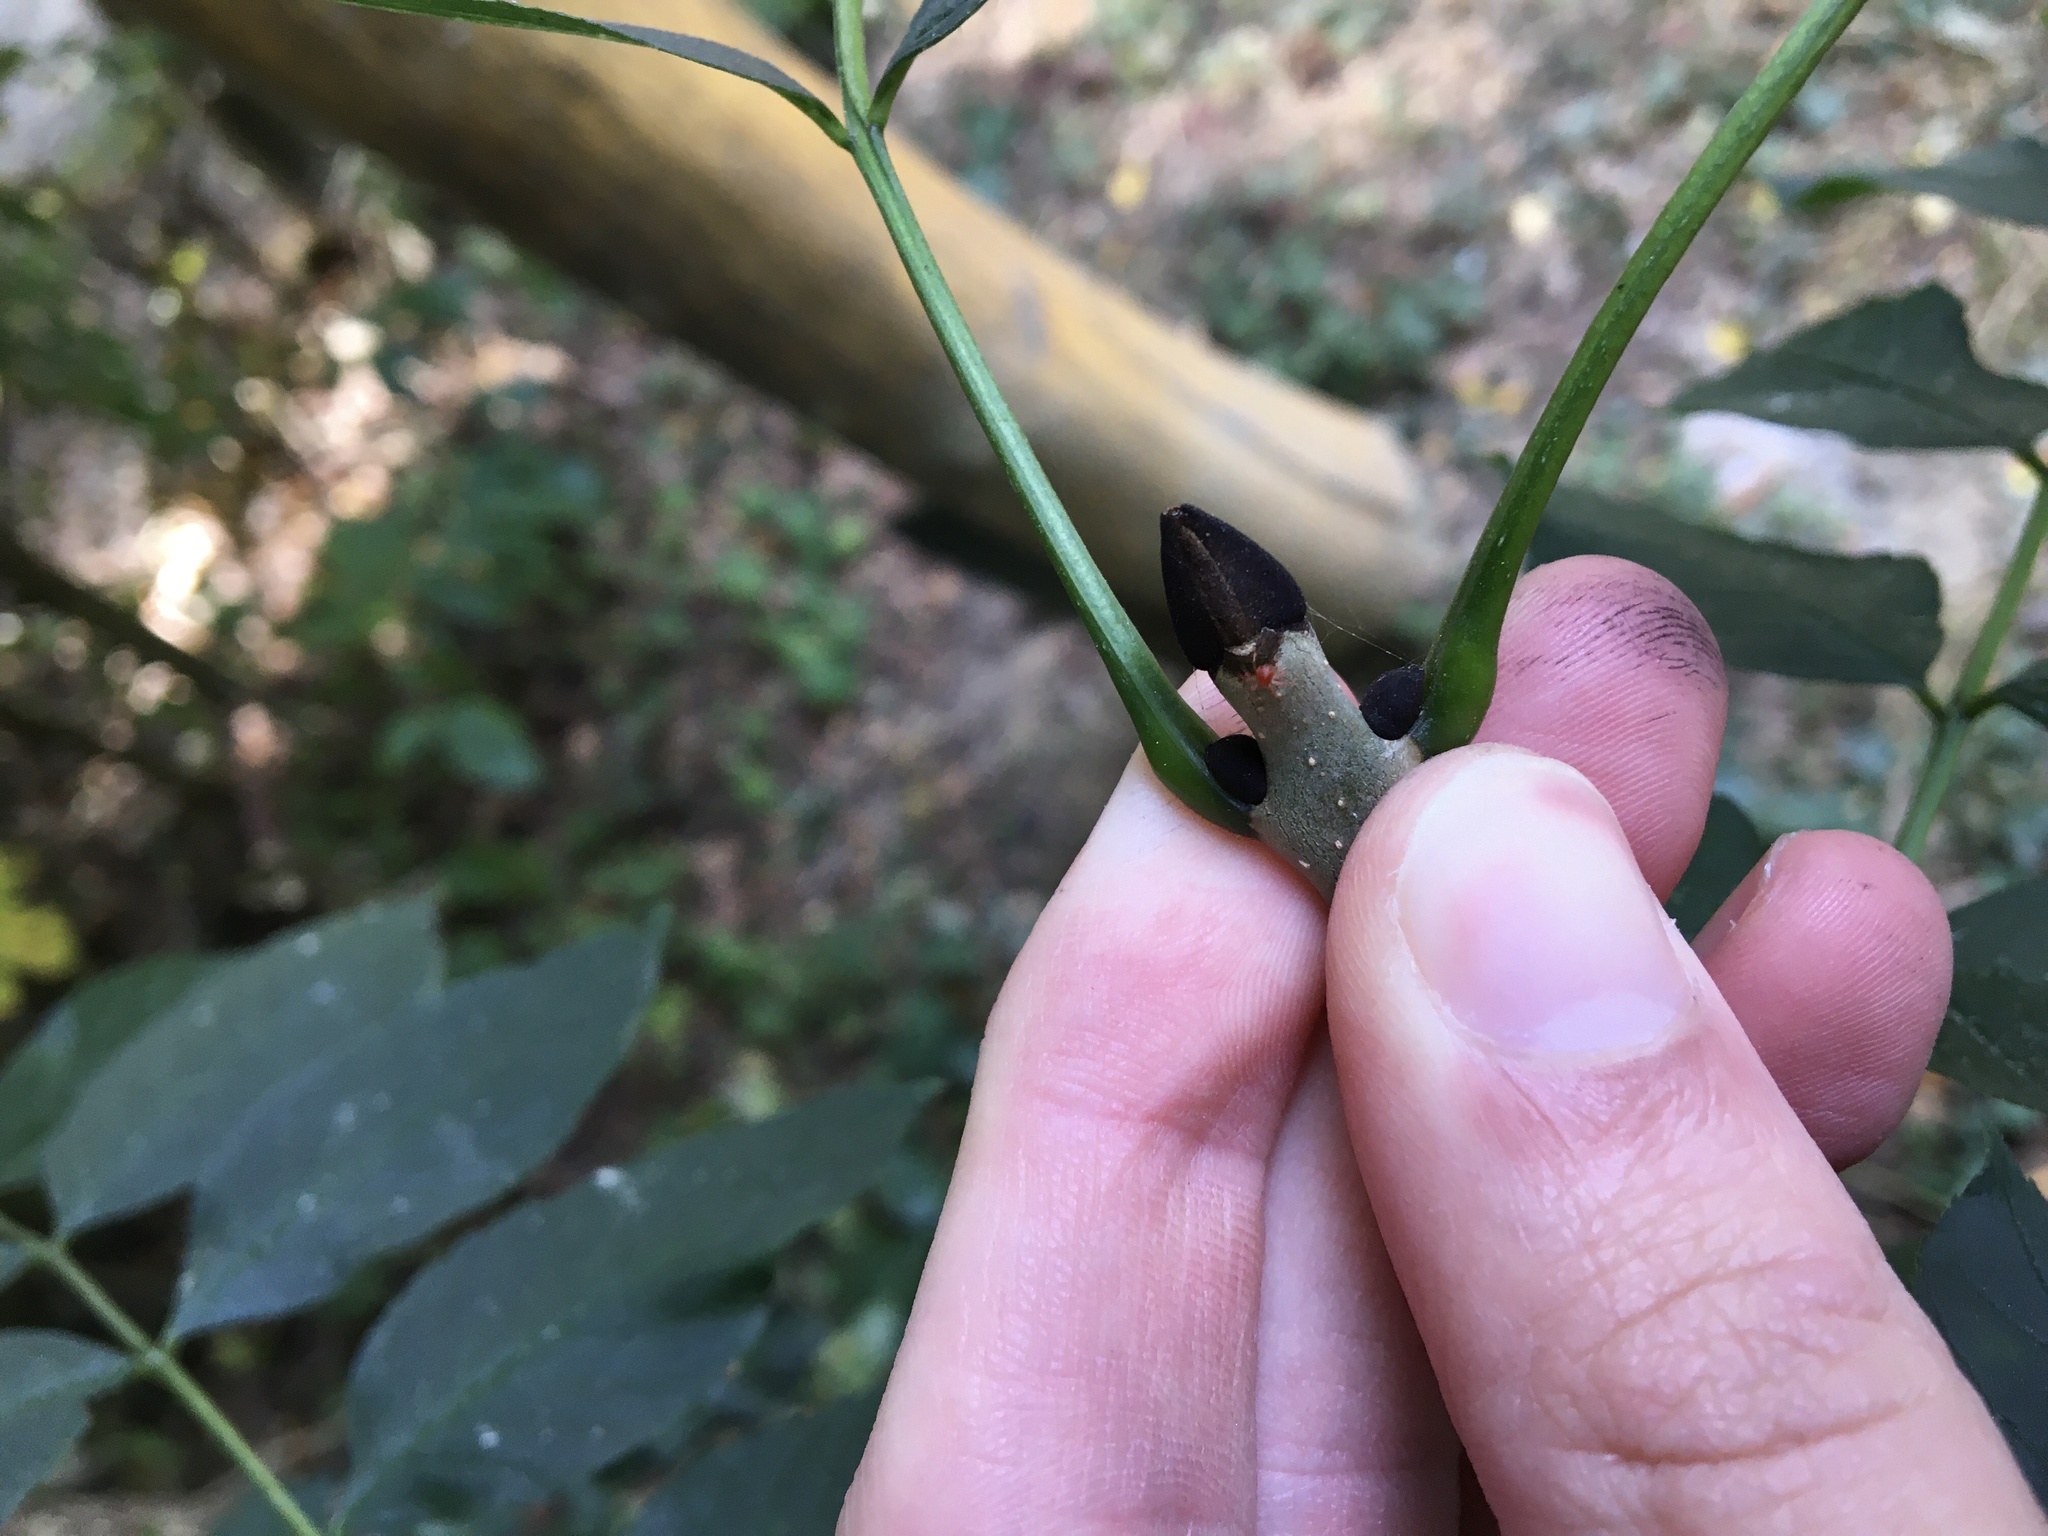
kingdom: Plantae
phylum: Tracheophyta
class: Magnoliopsida
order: Lamiales
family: Oleaceae
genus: Fraxinus
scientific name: Fraxinus excelsior
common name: European ash
